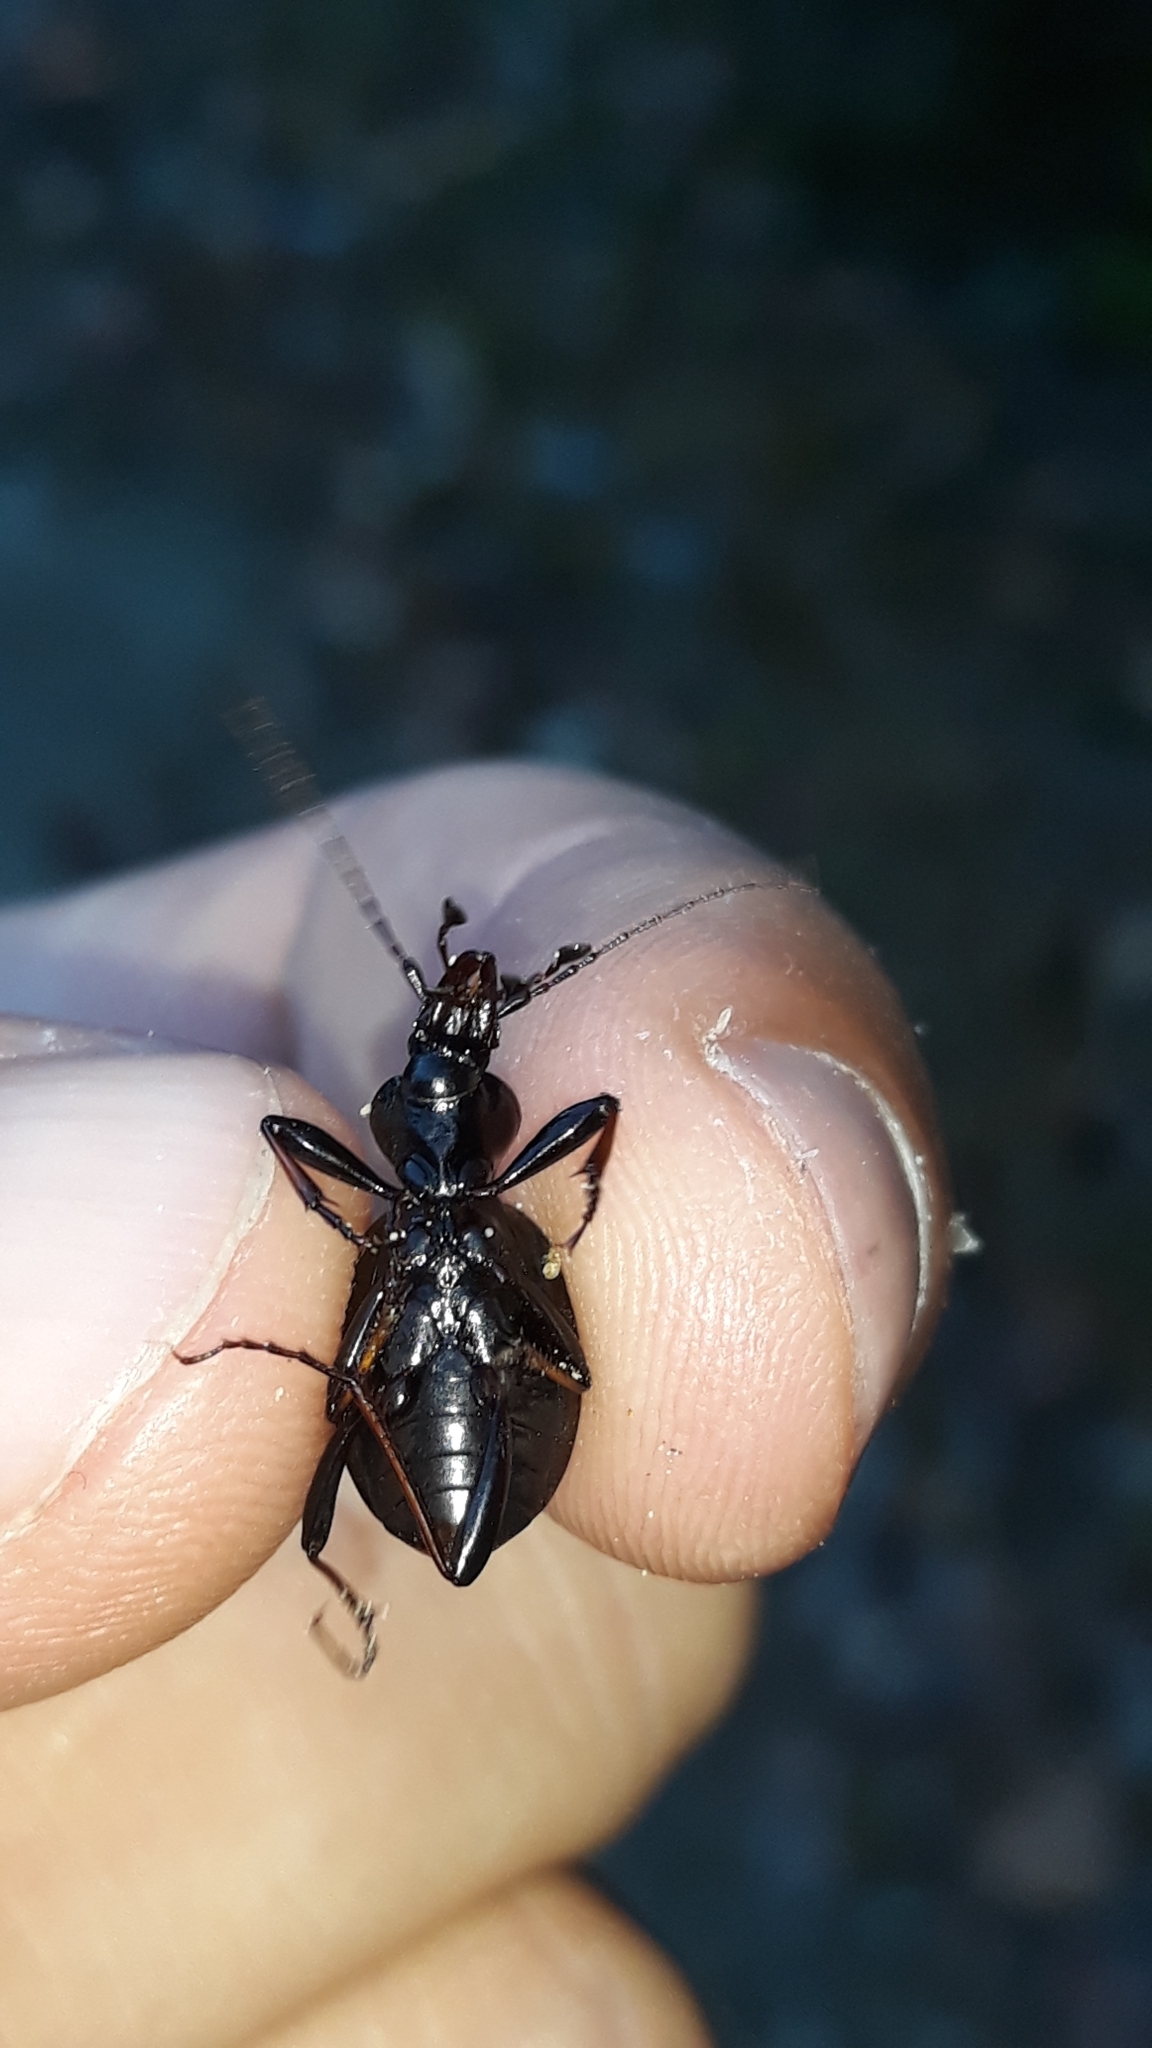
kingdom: Animalia
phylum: Arthropoda
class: Insecta
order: Coleoptera
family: Carabidae
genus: Cychrus
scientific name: Cychrus attenuatus
